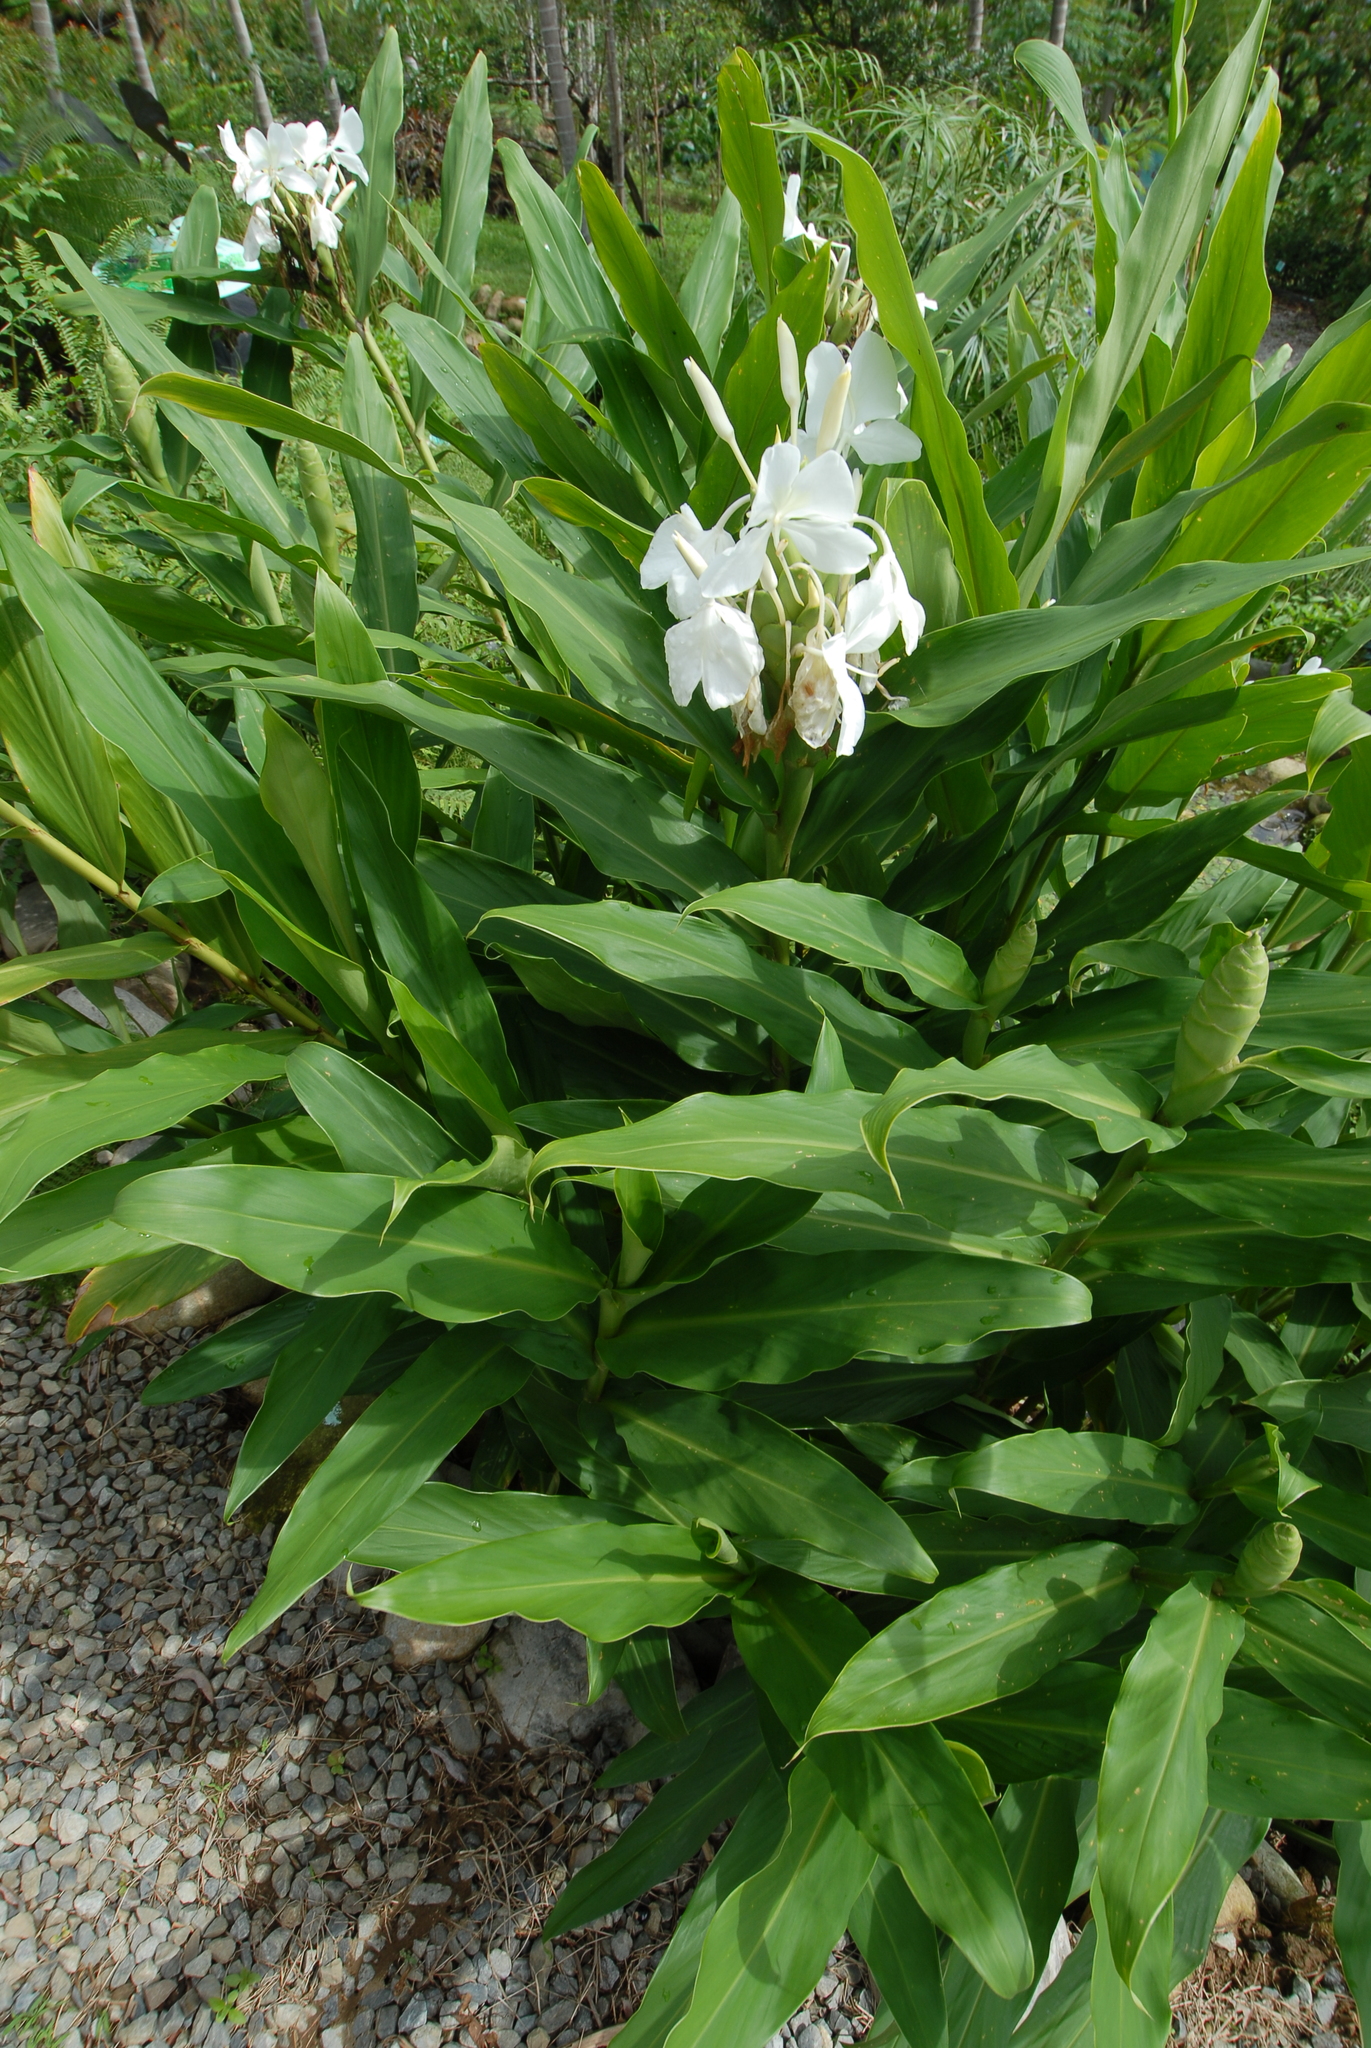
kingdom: Plantae
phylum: Tracheophyta
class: Liliopsida
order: Zingiberales
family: Zingiberaceae
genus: Hedychium
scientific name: Hedychium coronarium
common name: White garland-lily
